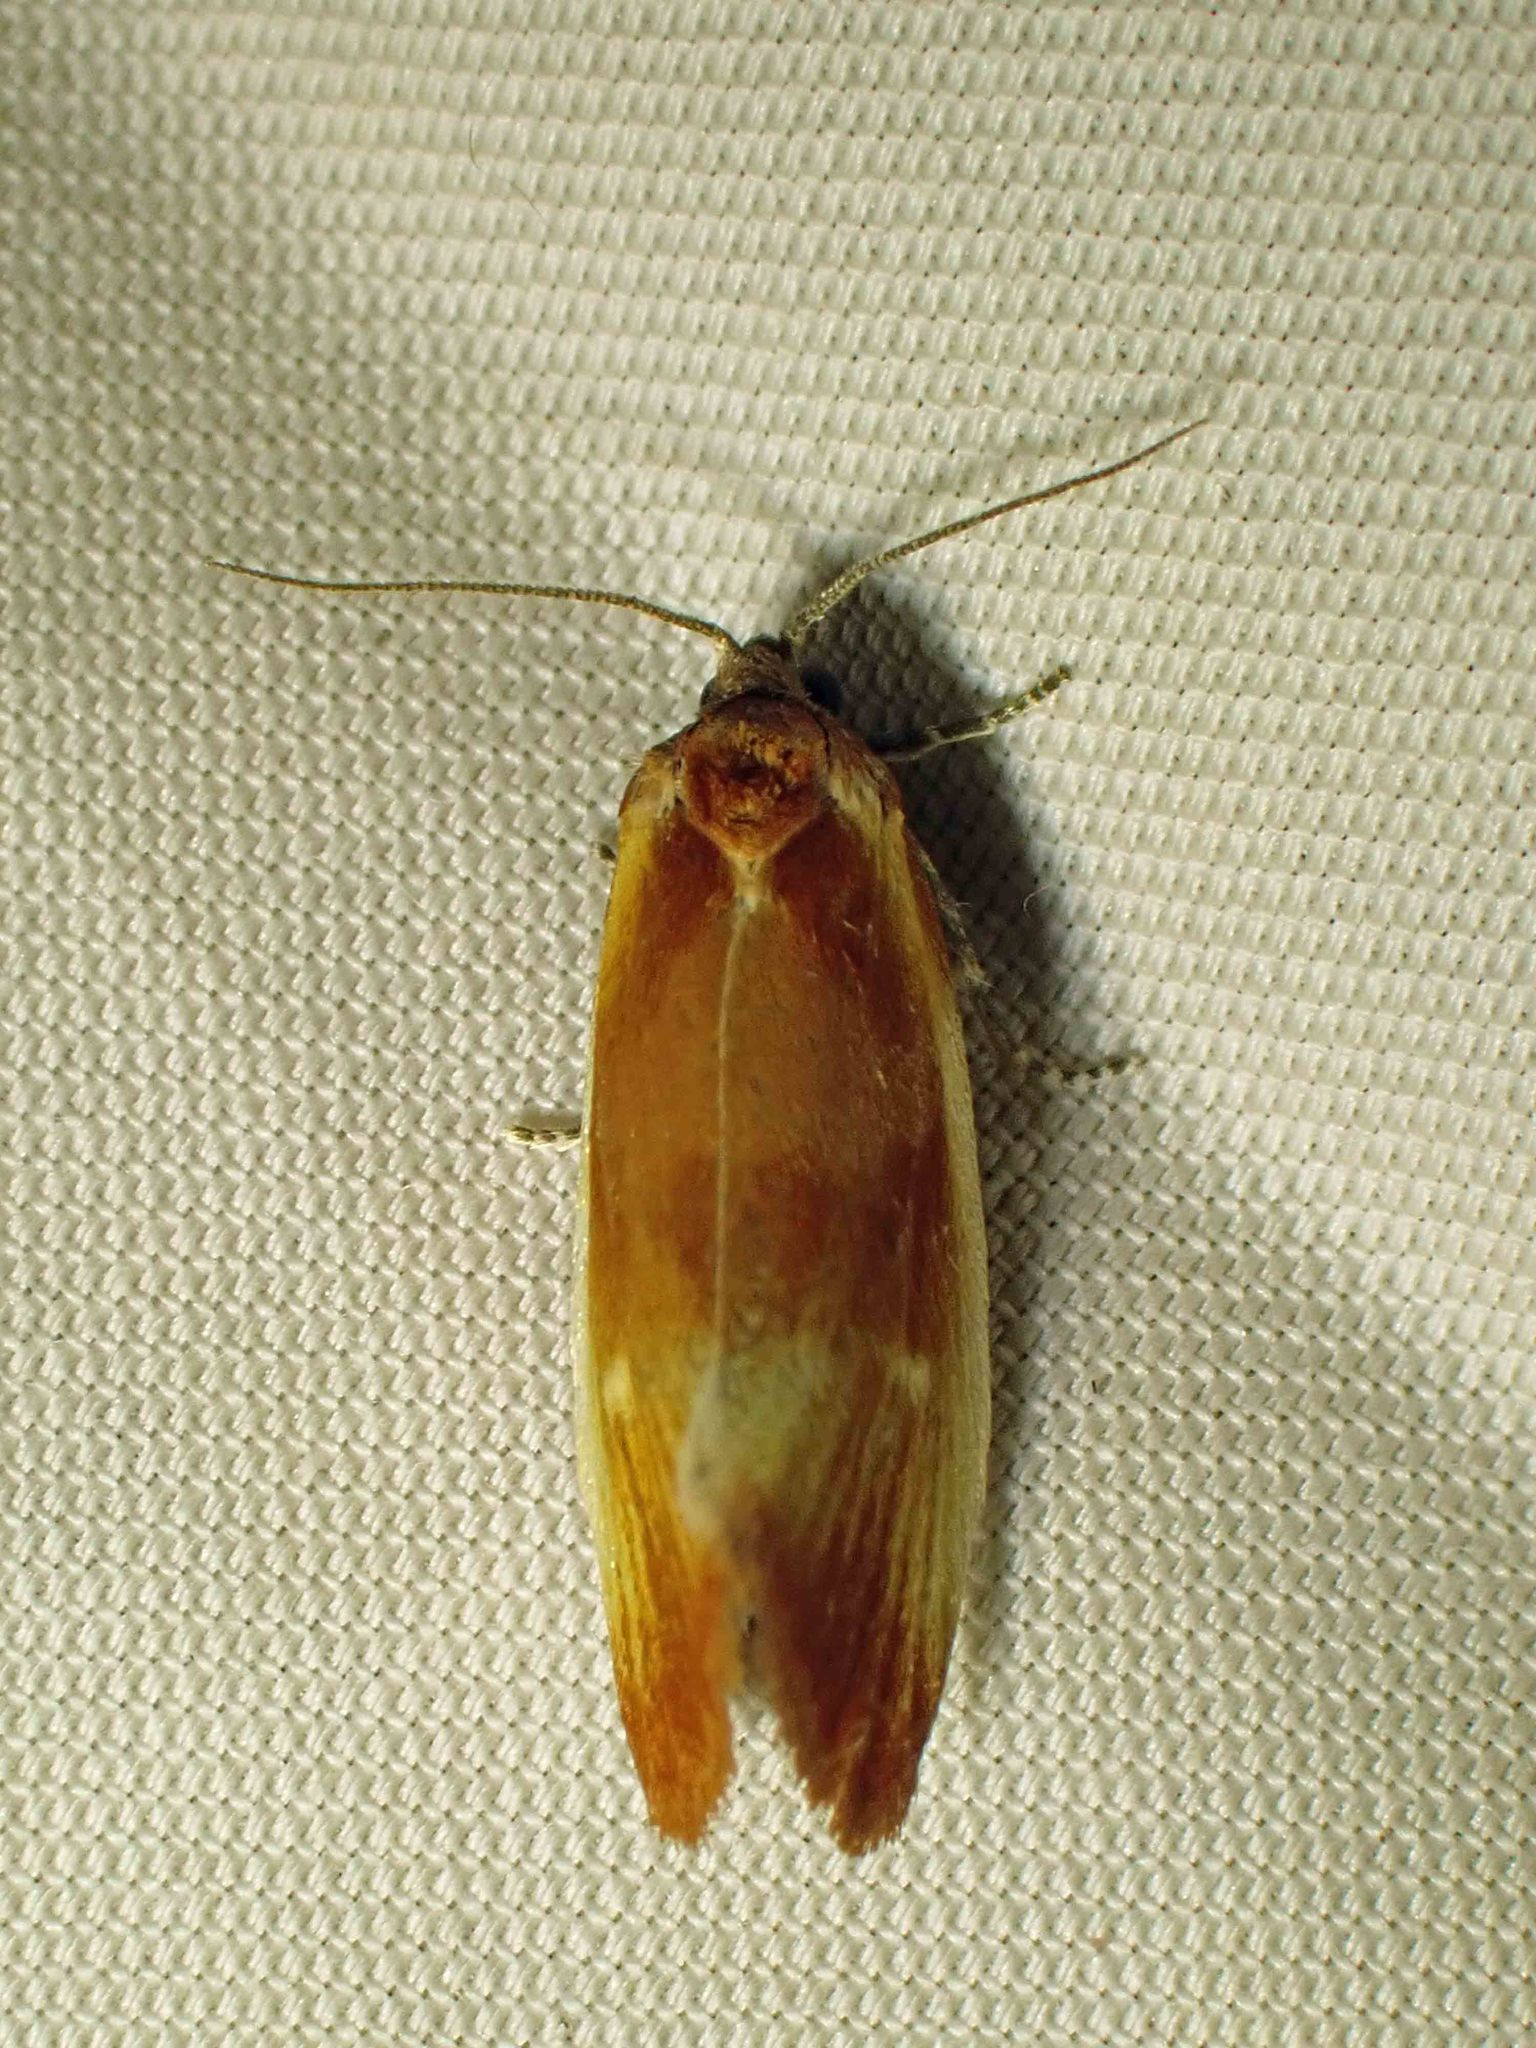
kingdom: Animalia
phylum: Arthropoda
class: Insecta
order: Lepidoptera
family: Tortricidae
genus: Eulia
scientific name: Eulia ministrana
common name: Brassy twist
